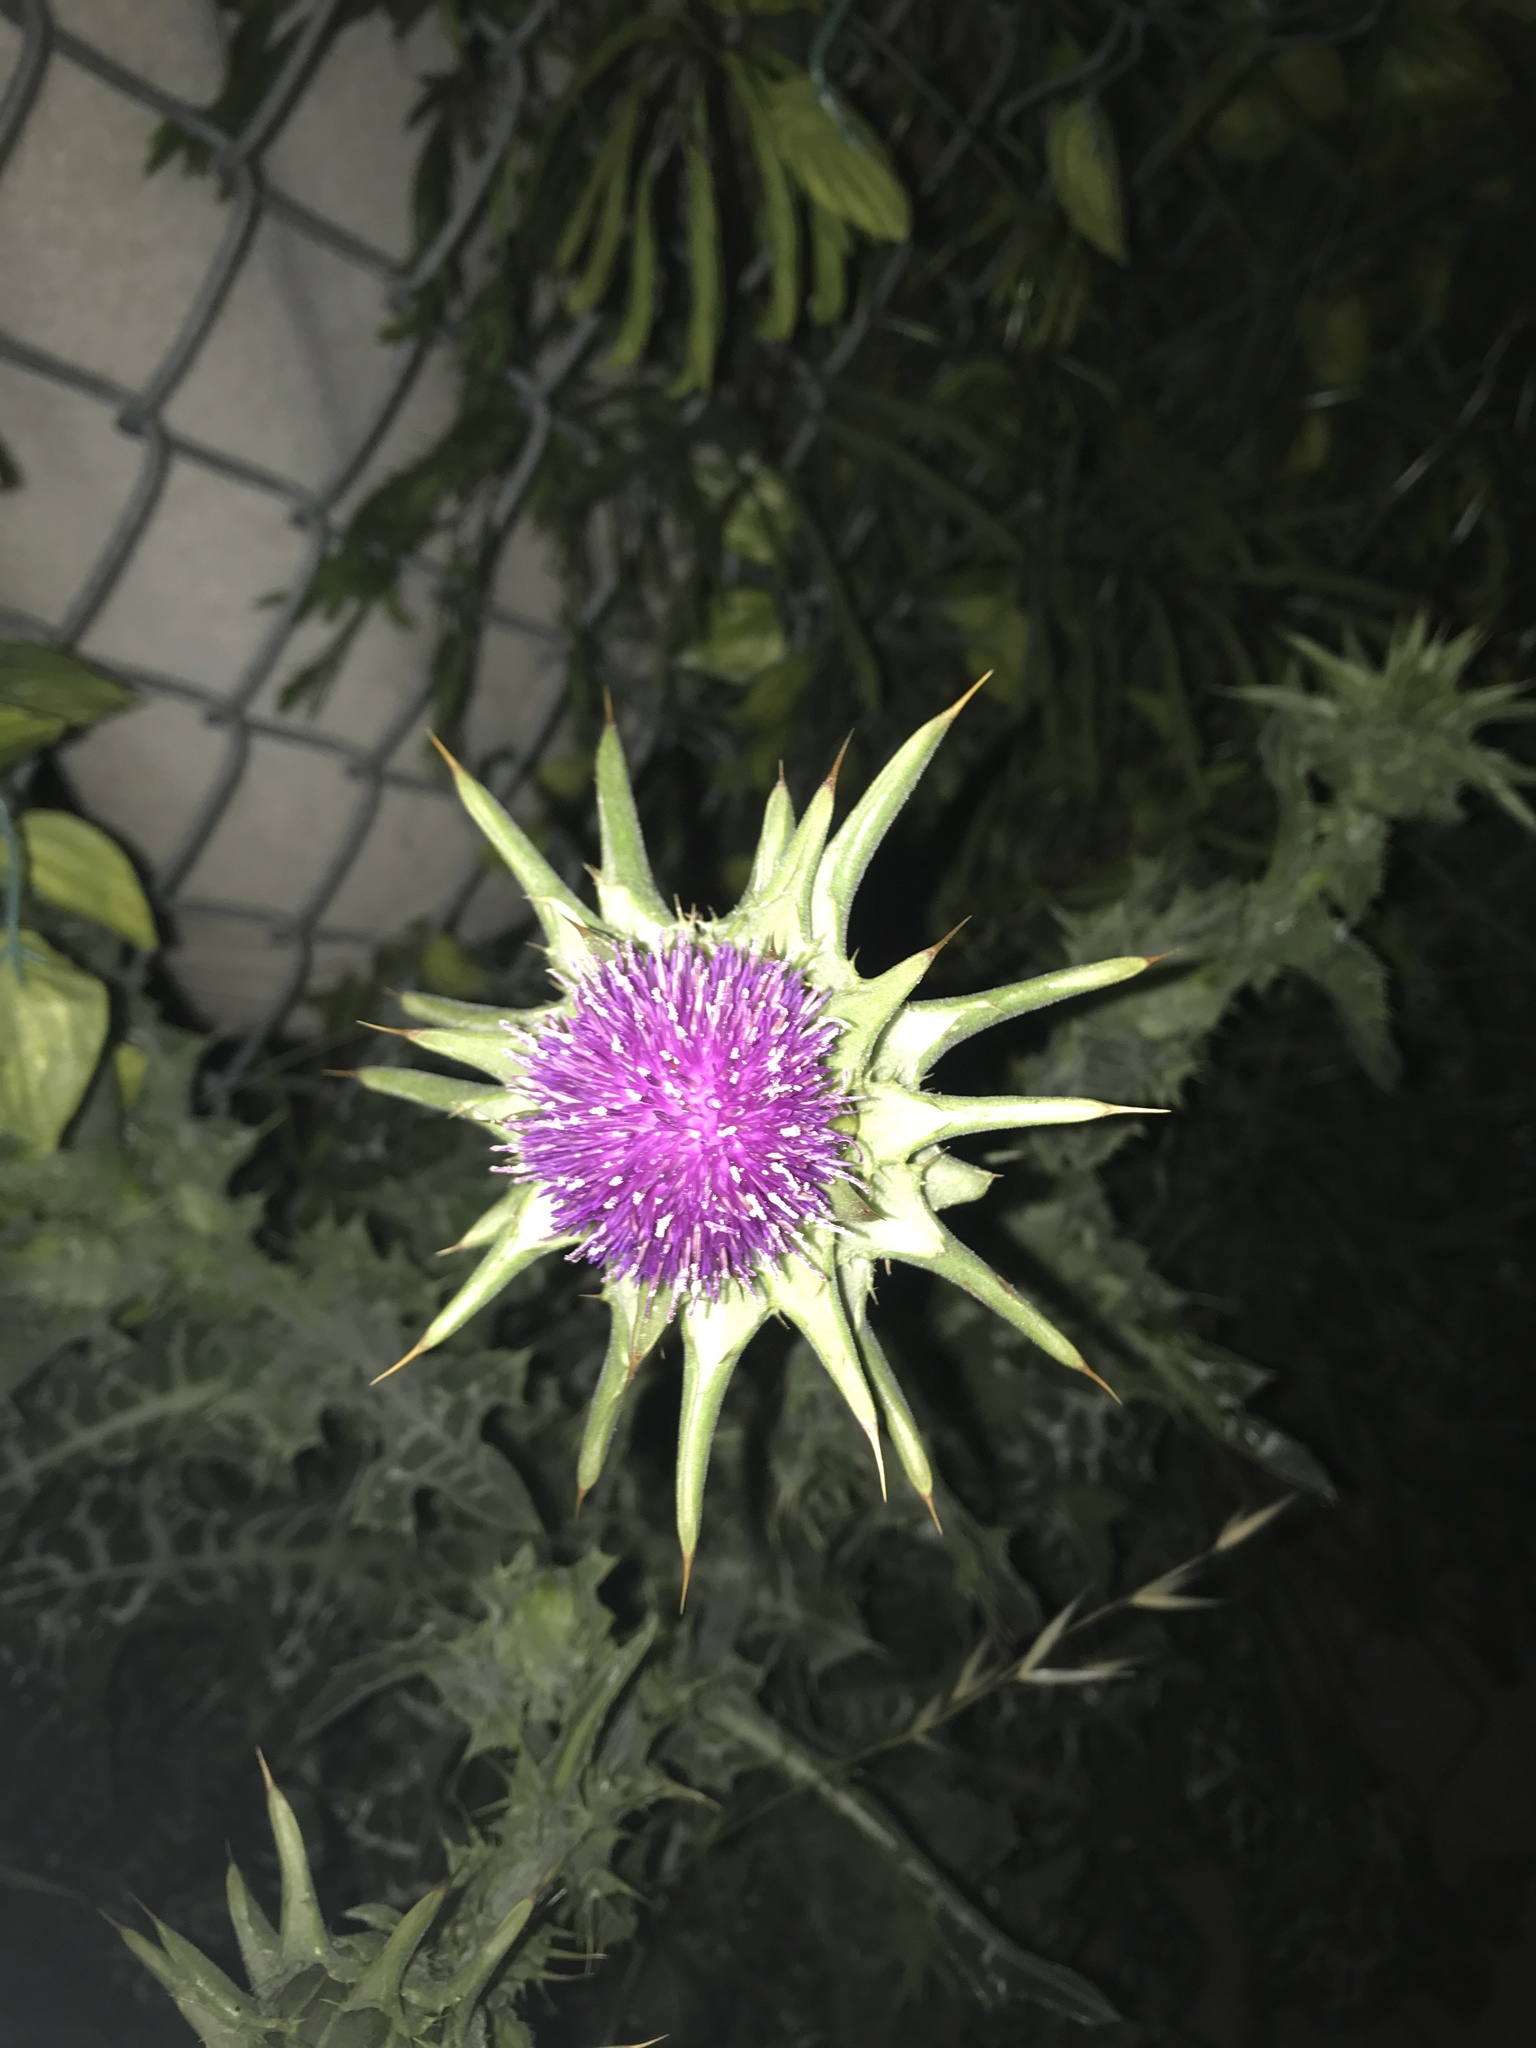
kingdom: Plantae
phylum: Tracheophyta
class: Magnoliopsida
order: Asterales
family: Asteraceae
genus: Silybum
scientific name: Silybum marianum
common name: Milk thistle
